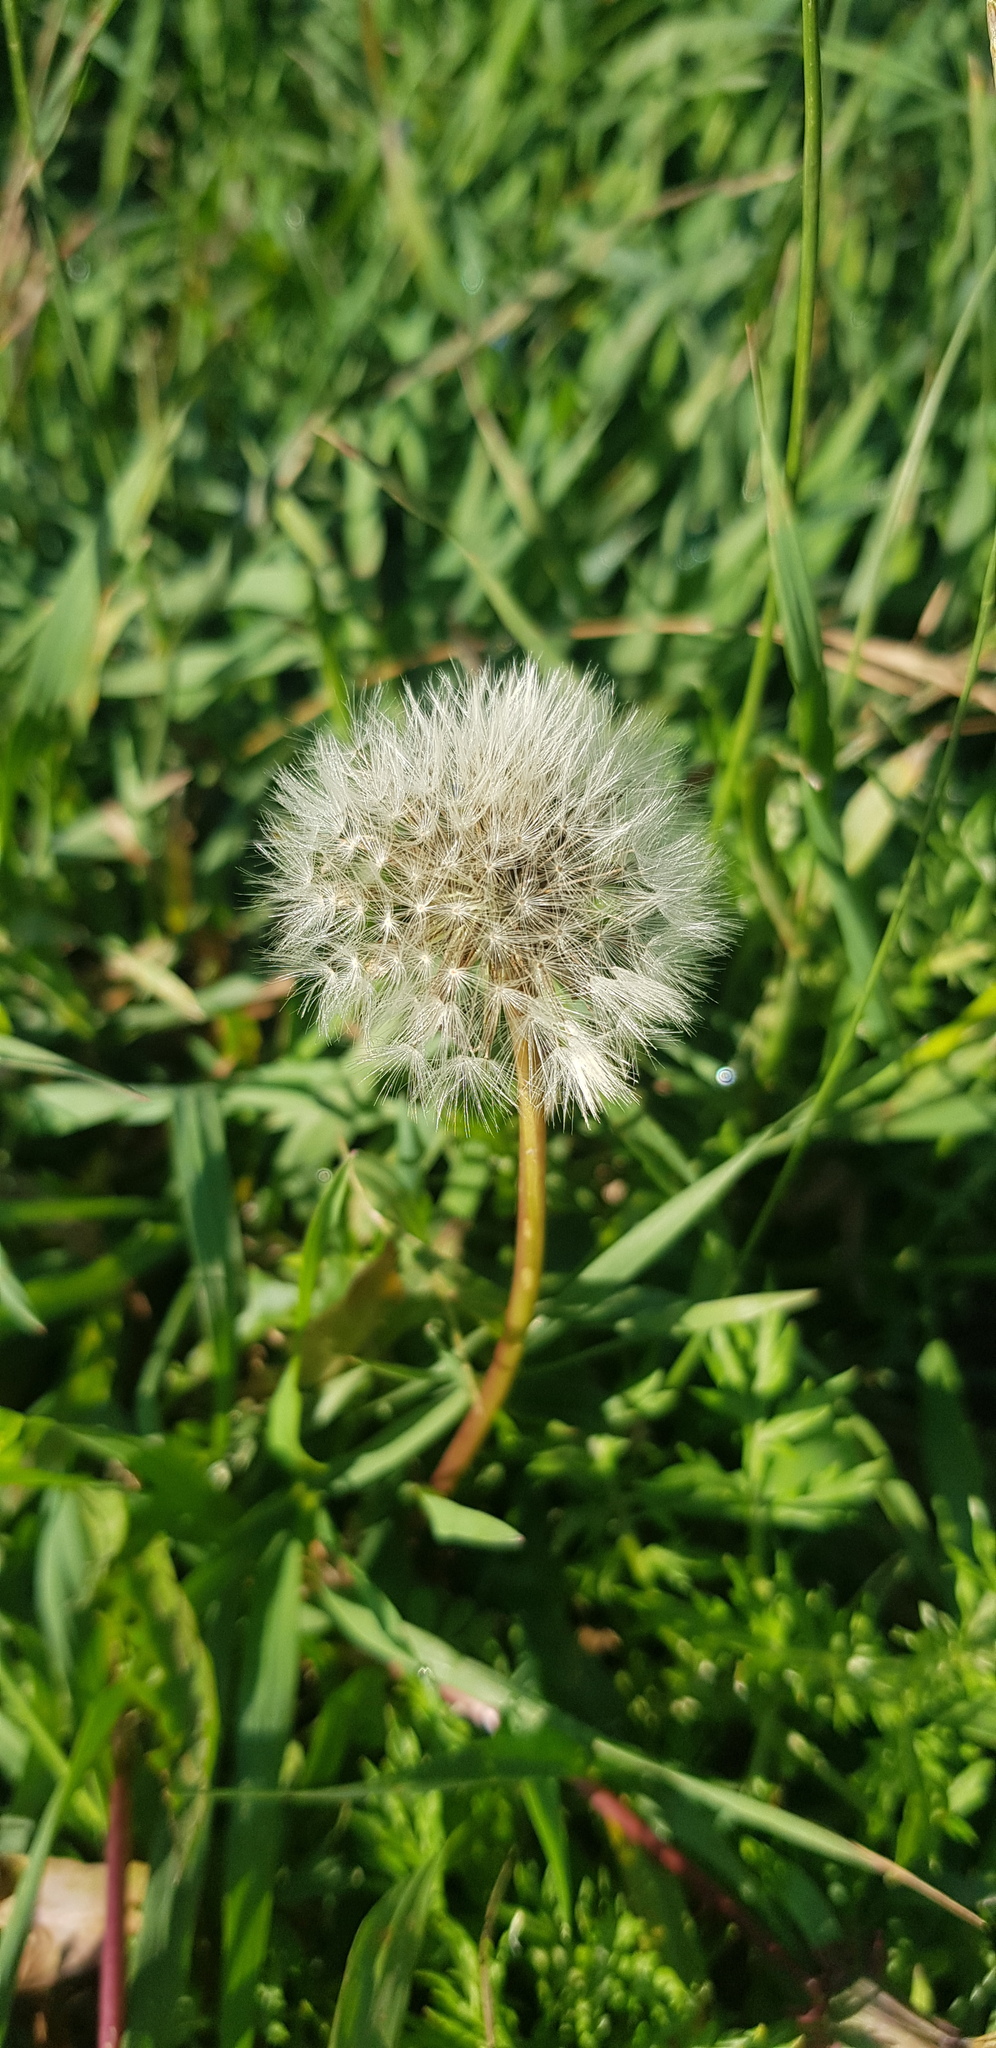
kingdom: Plantae
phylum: Tracheophyta
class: Magnoliopsida
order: Asterales
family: Asteraceae
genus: Taraxacum
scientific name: Taraxacum officinale
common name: Common dandelion
